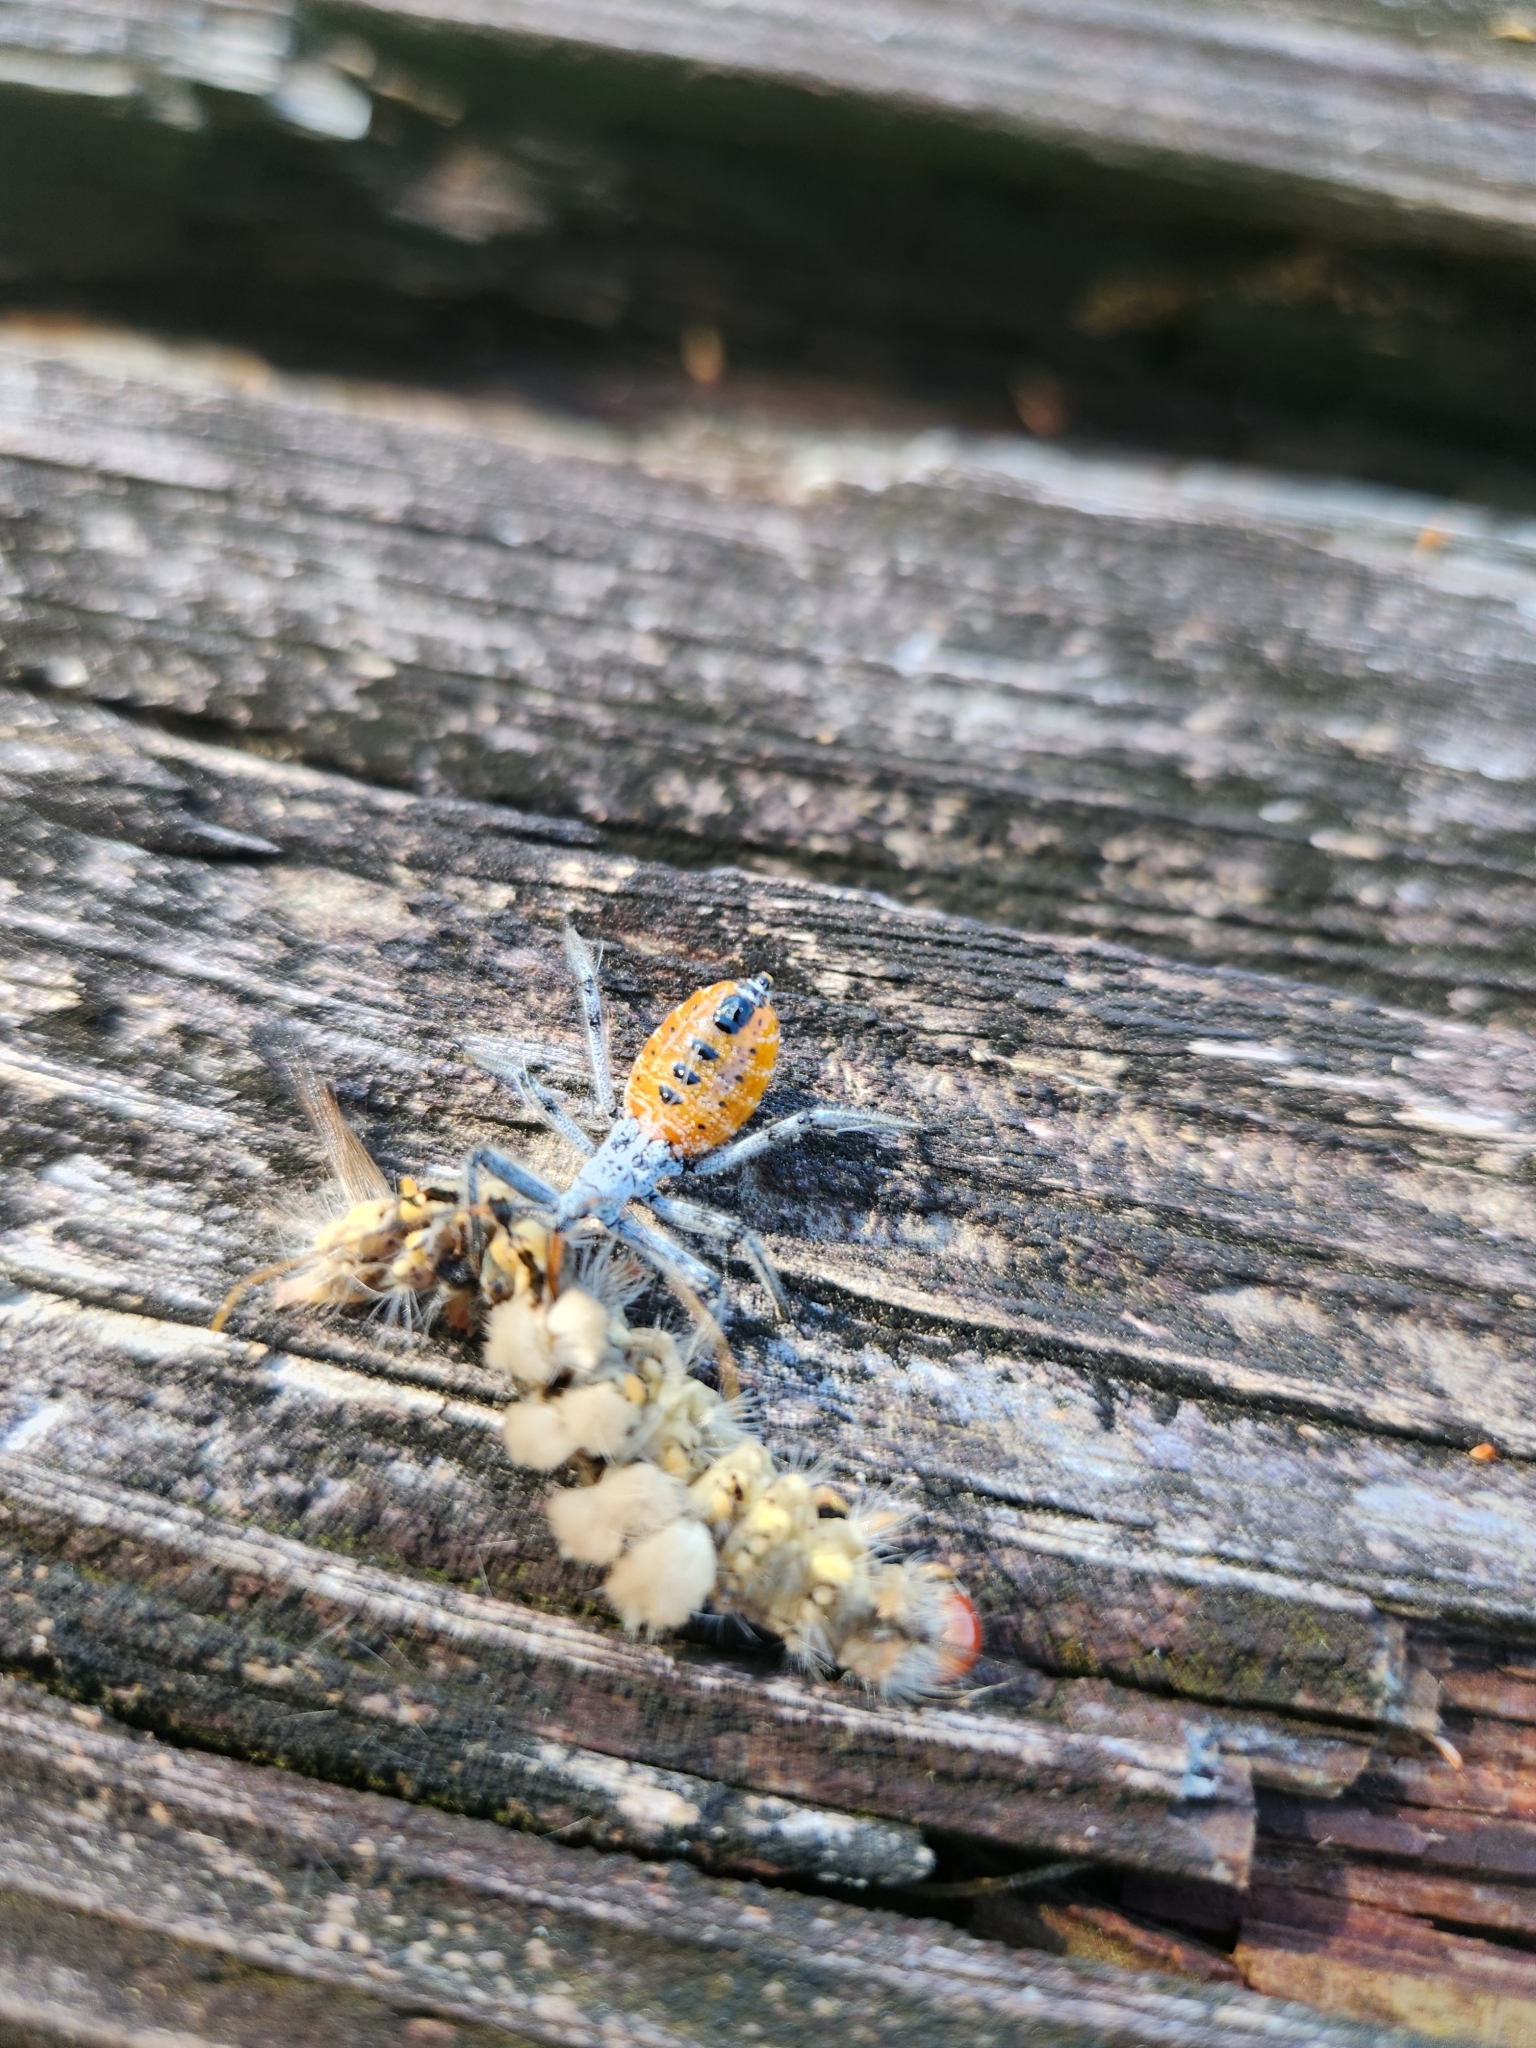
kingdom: Animalia
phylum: Arthropoda
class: Insecta
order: Hemiptera
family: Reduviidae
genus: Arilus
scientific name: Arilus cristatus
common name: North american wheel bug
